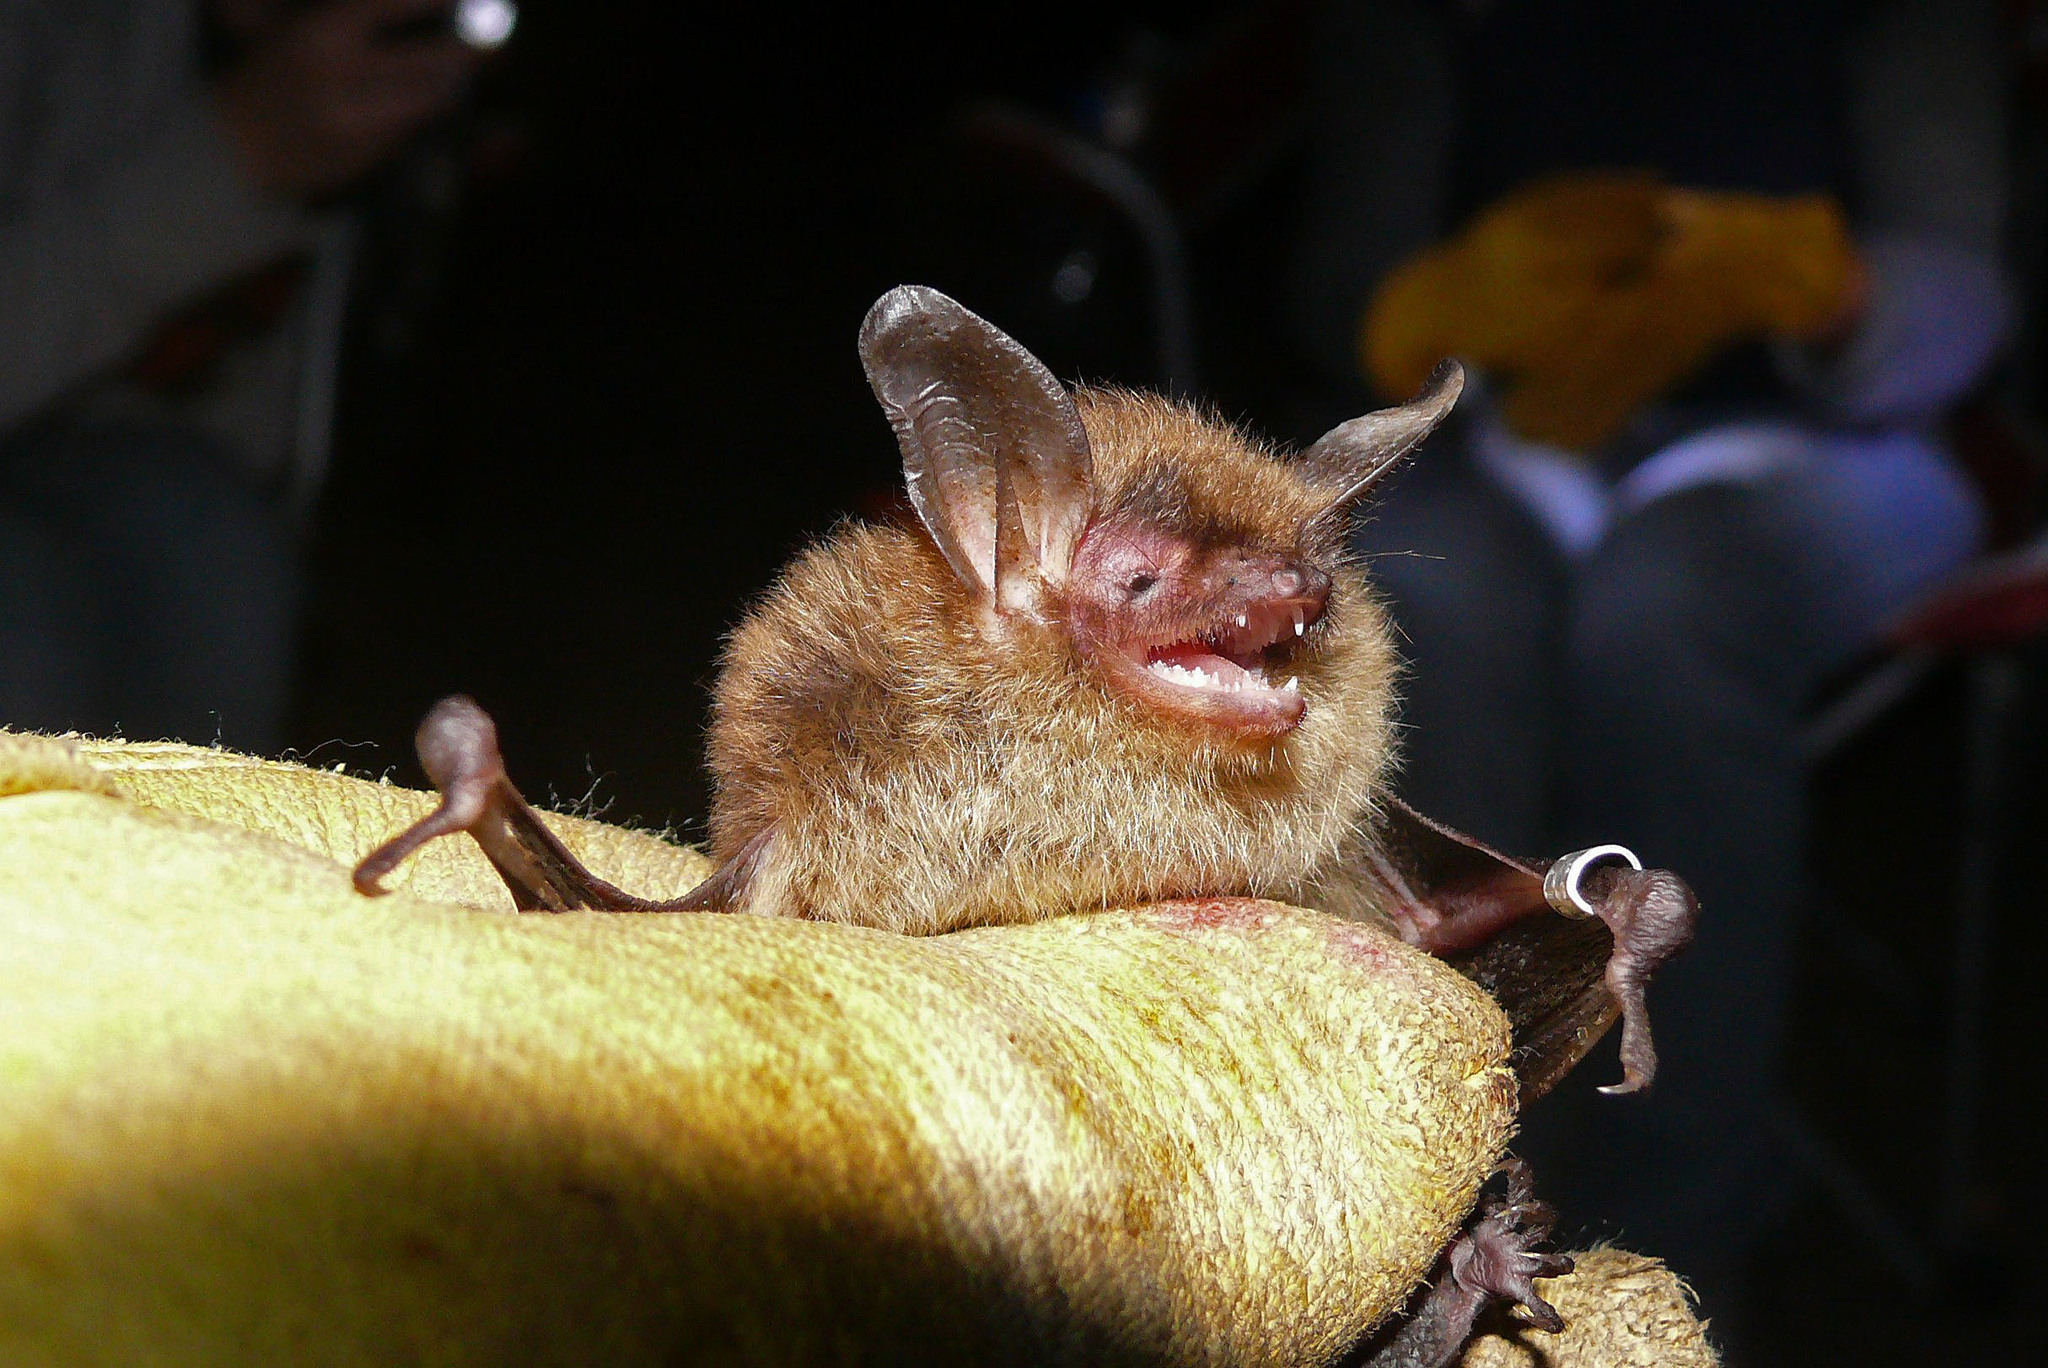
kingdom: Animalia
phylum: Chordata
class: Mammalia
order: Chiroptera
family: Vespertilionidae
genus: Myotis
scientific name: Myotis septentrionalis
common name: Northern myotis
